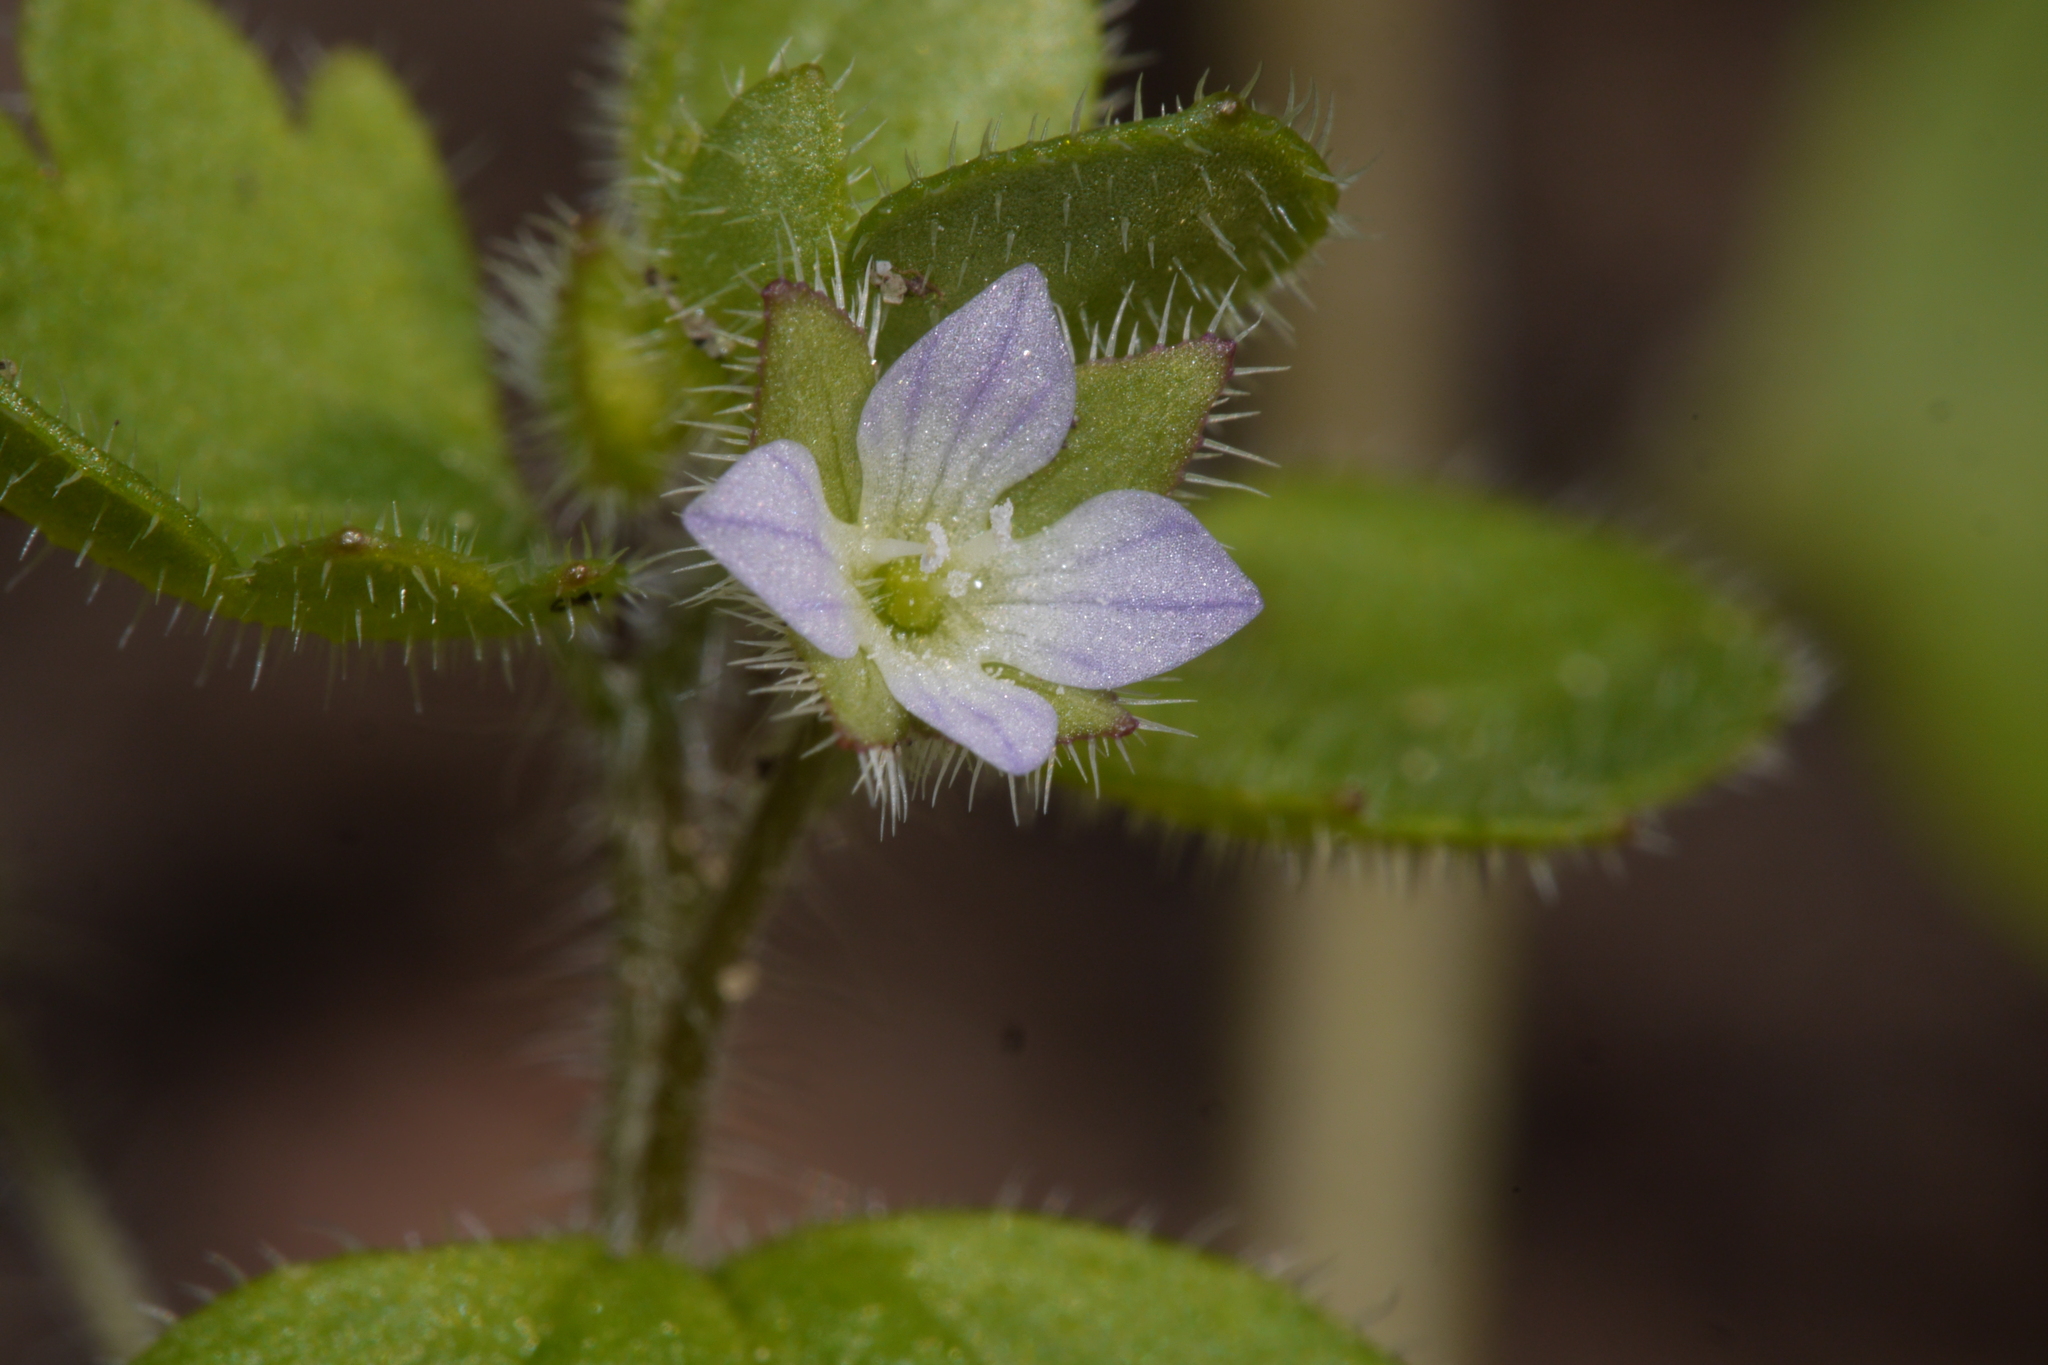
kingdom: Plantae
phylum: Tracheophyta
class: Magnoliopsida
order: Lamiales
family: Plantaginaceae
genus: Veronica
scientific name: Veronica sublobata
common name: False ivy-leaved speedwell
